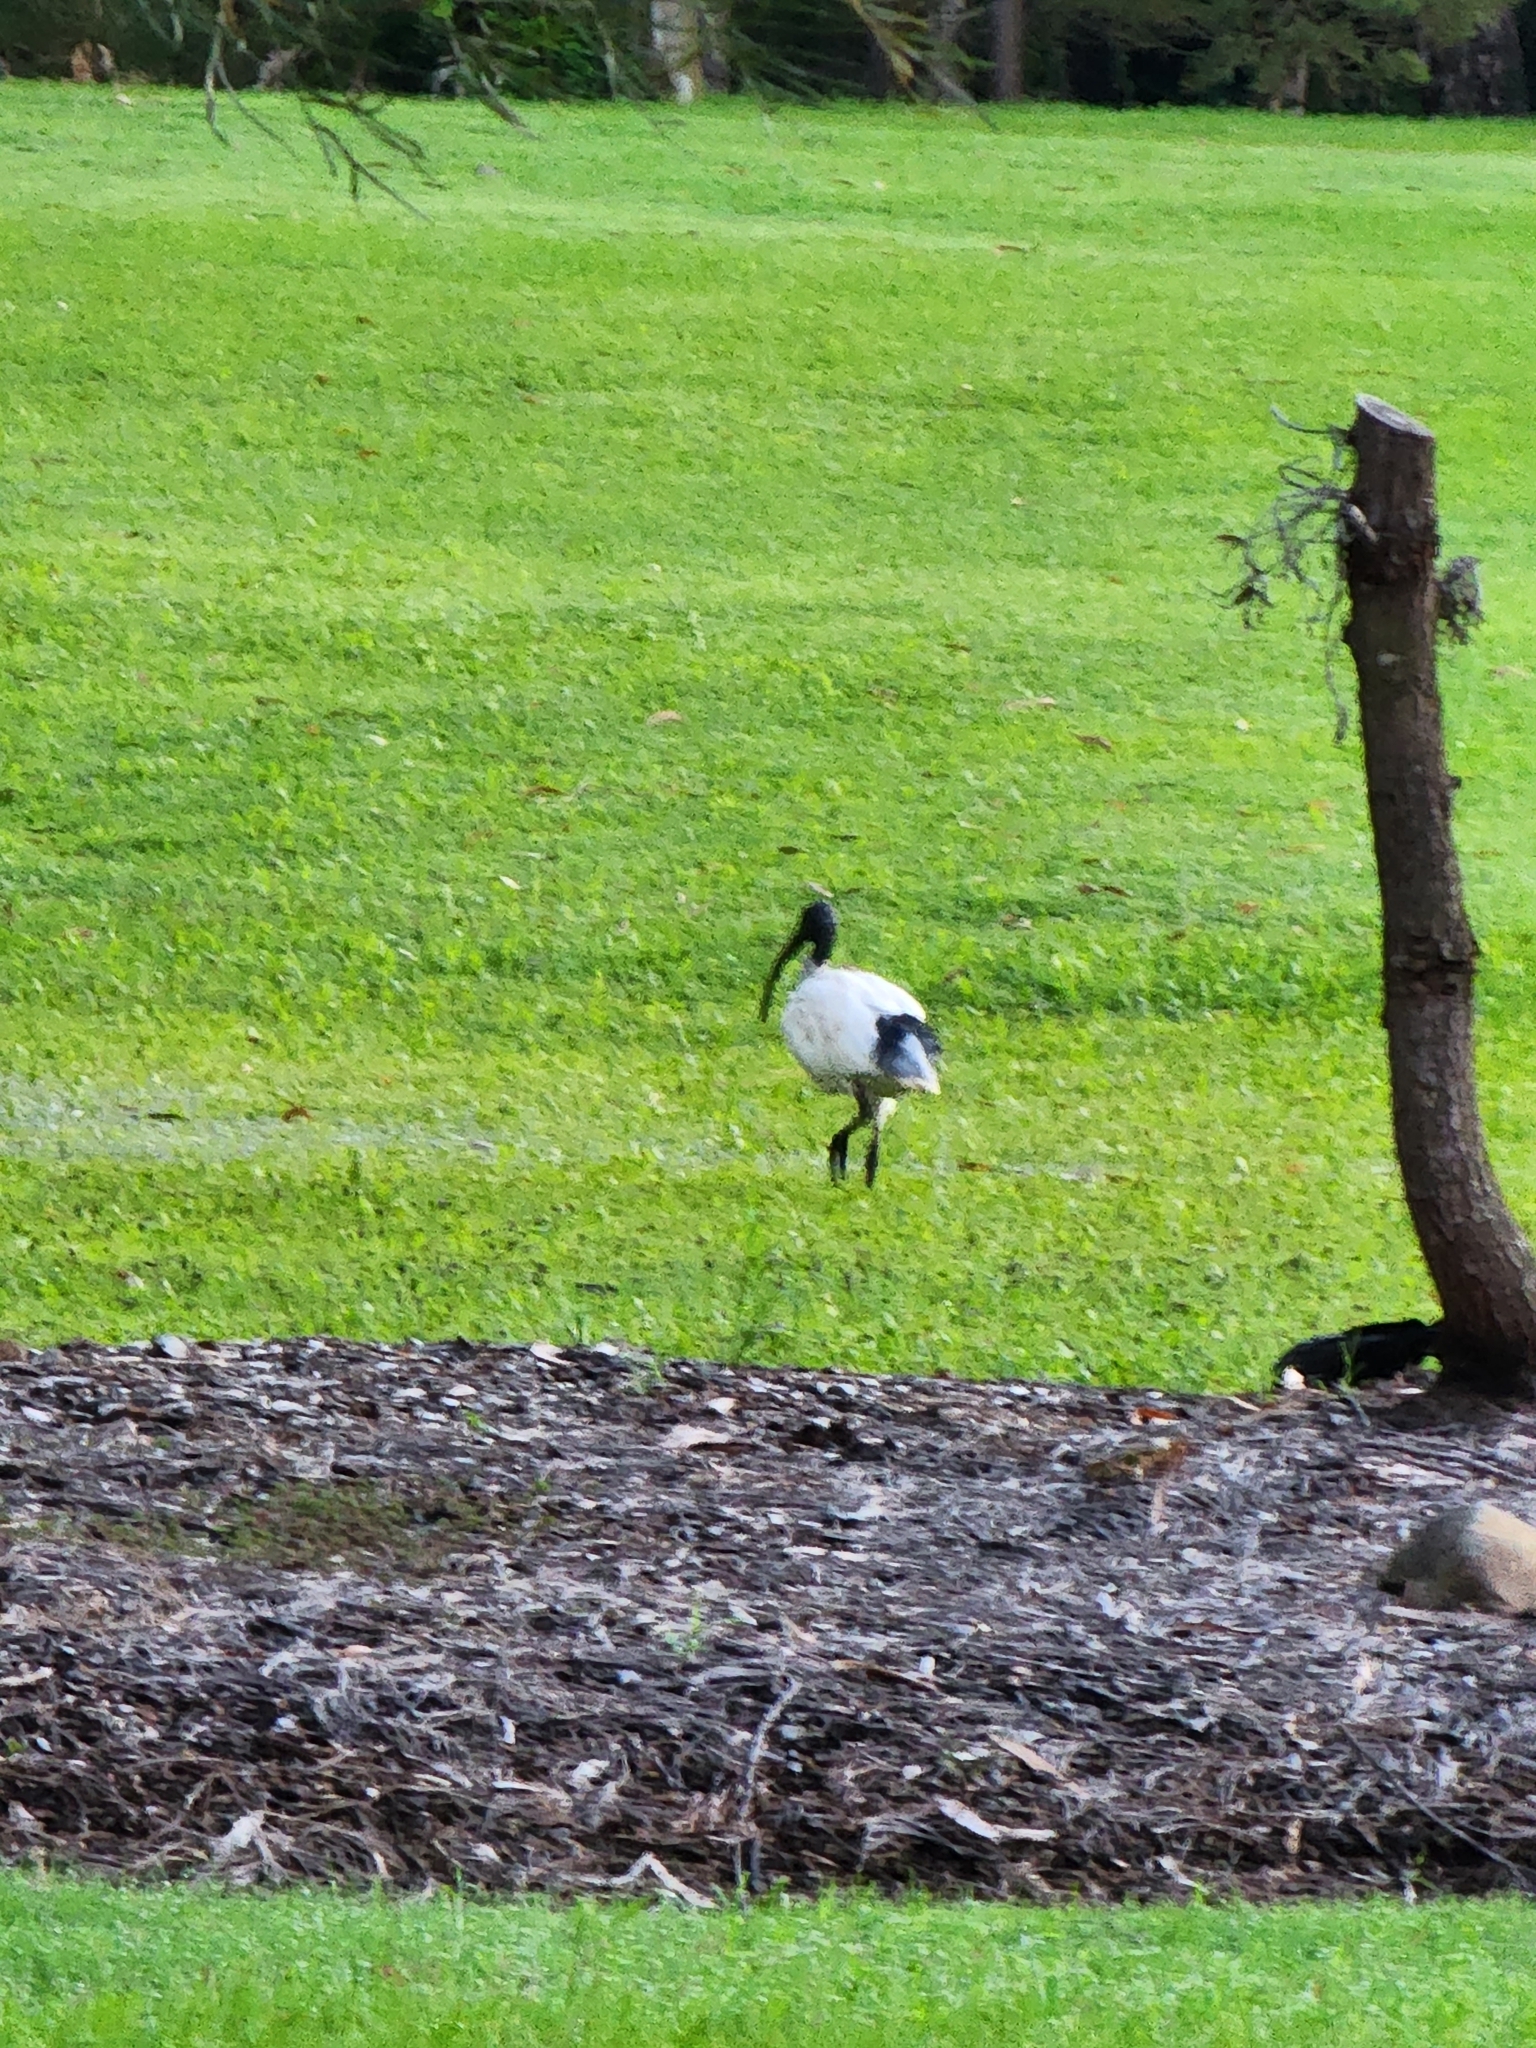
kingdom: Animalia
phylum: Chordata
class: Aves
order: Pelecaniformes
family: Threskiornithidae
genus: Threskiornis
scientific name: Threskiornis molucca
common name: Australian white ibis
